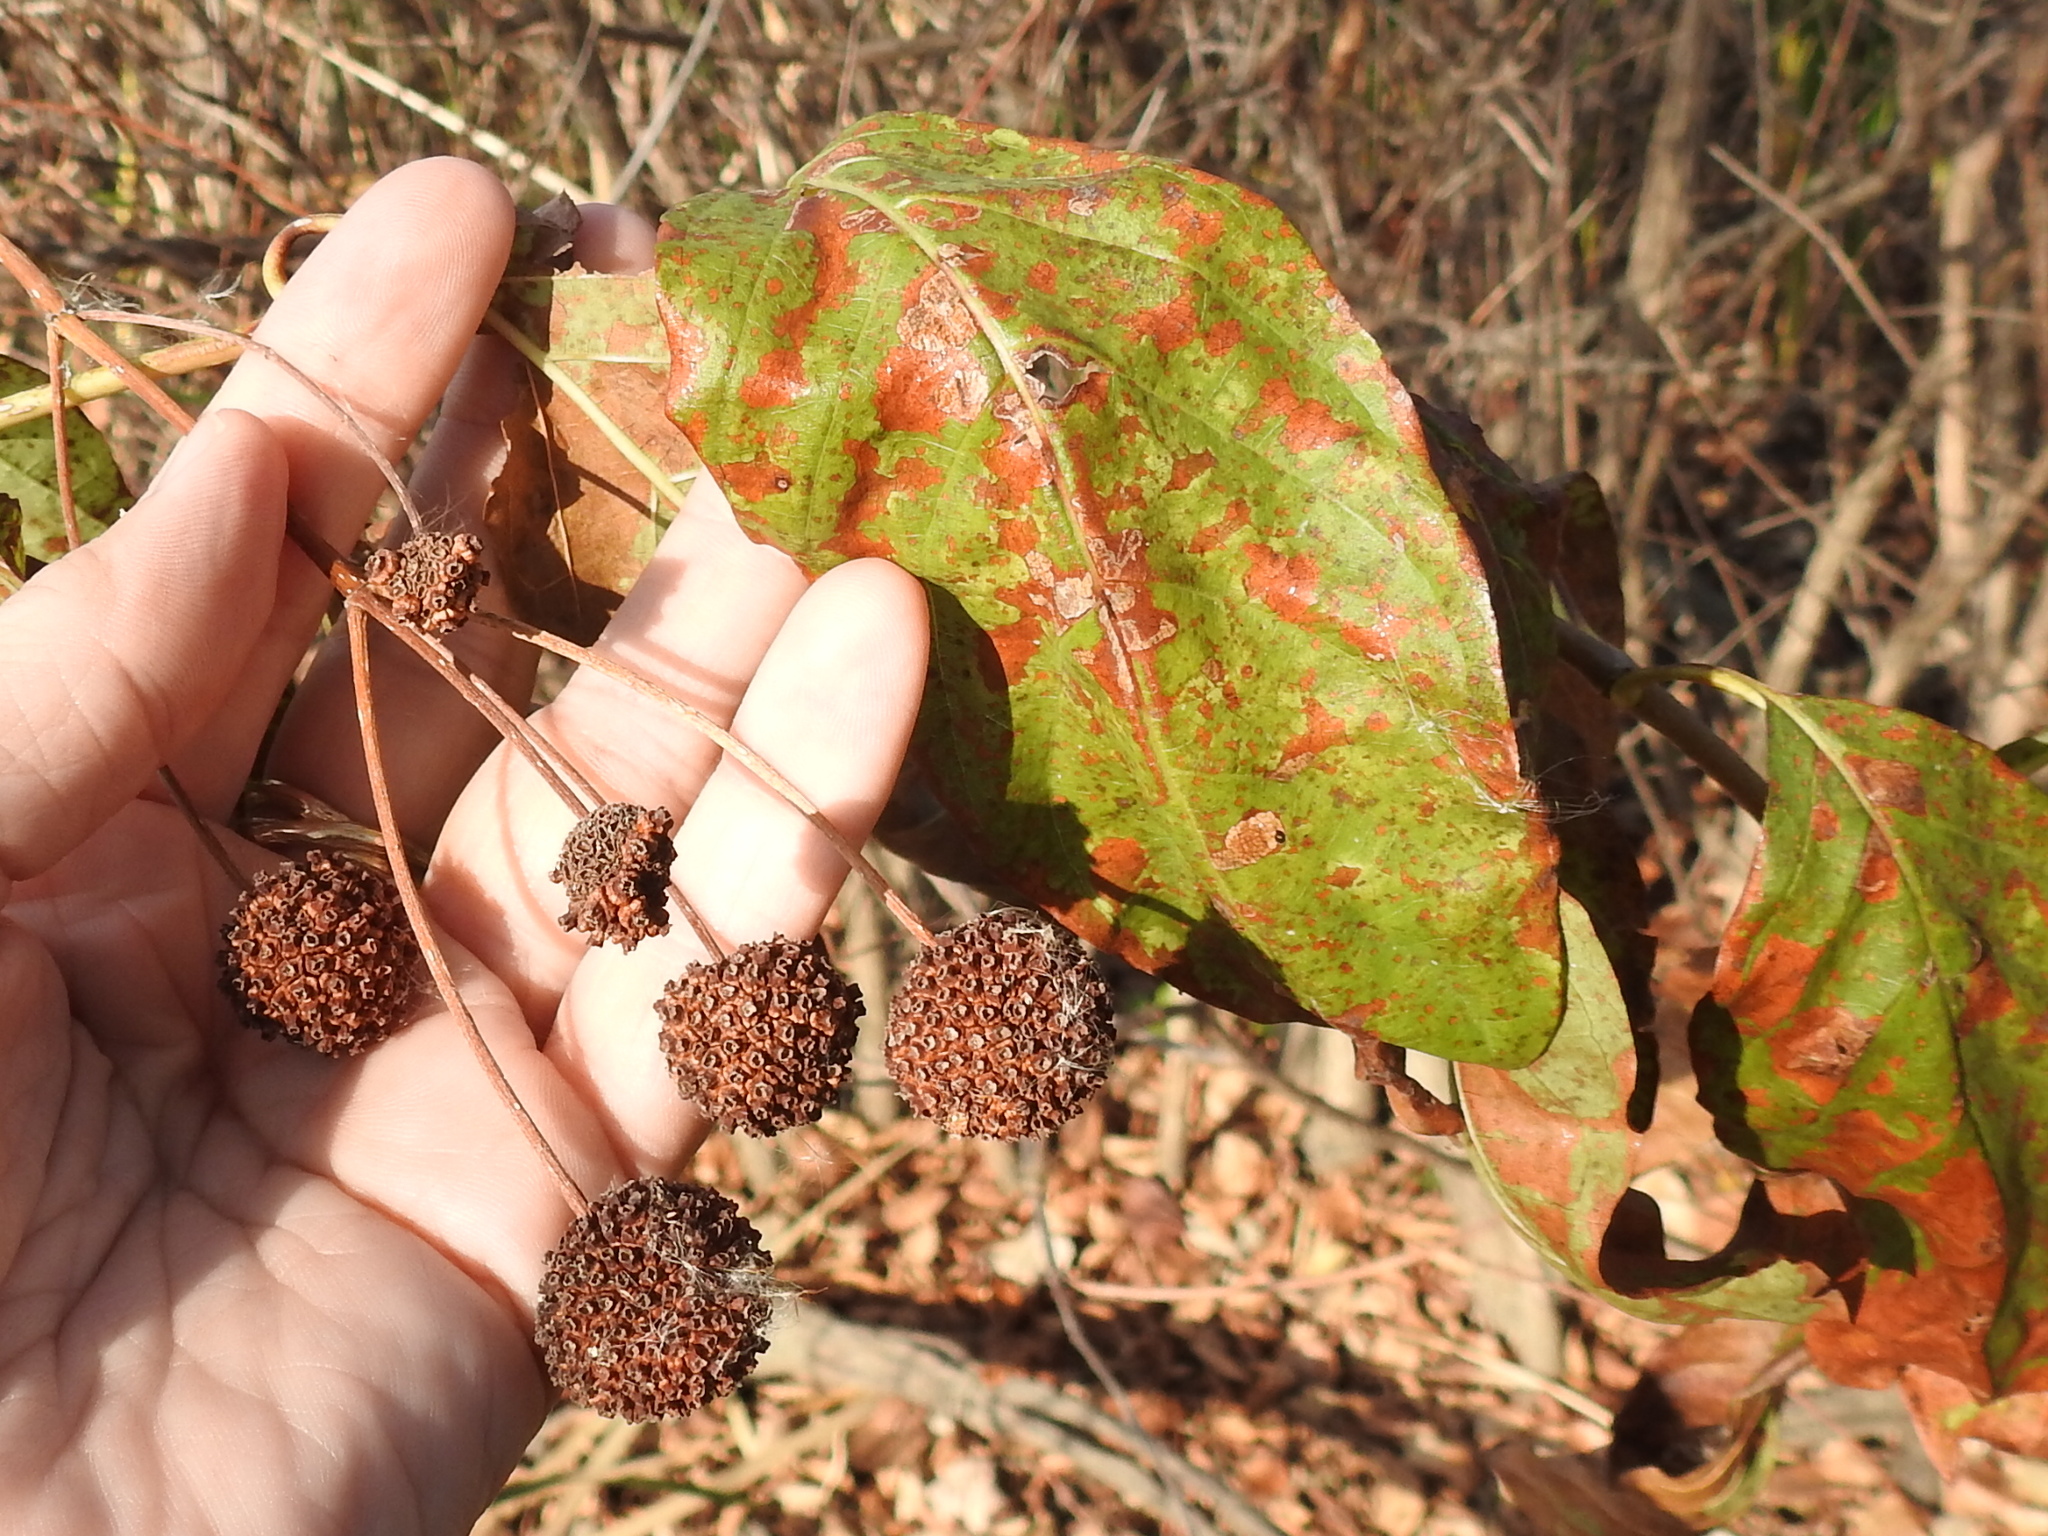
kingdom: Plantae
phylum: Tracheophyta
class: Magnoliopsida
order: Gentianales
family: Rubiaceae
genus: Cephalanthus
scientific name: Cephalanthus occidentalis
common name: Button-willow
